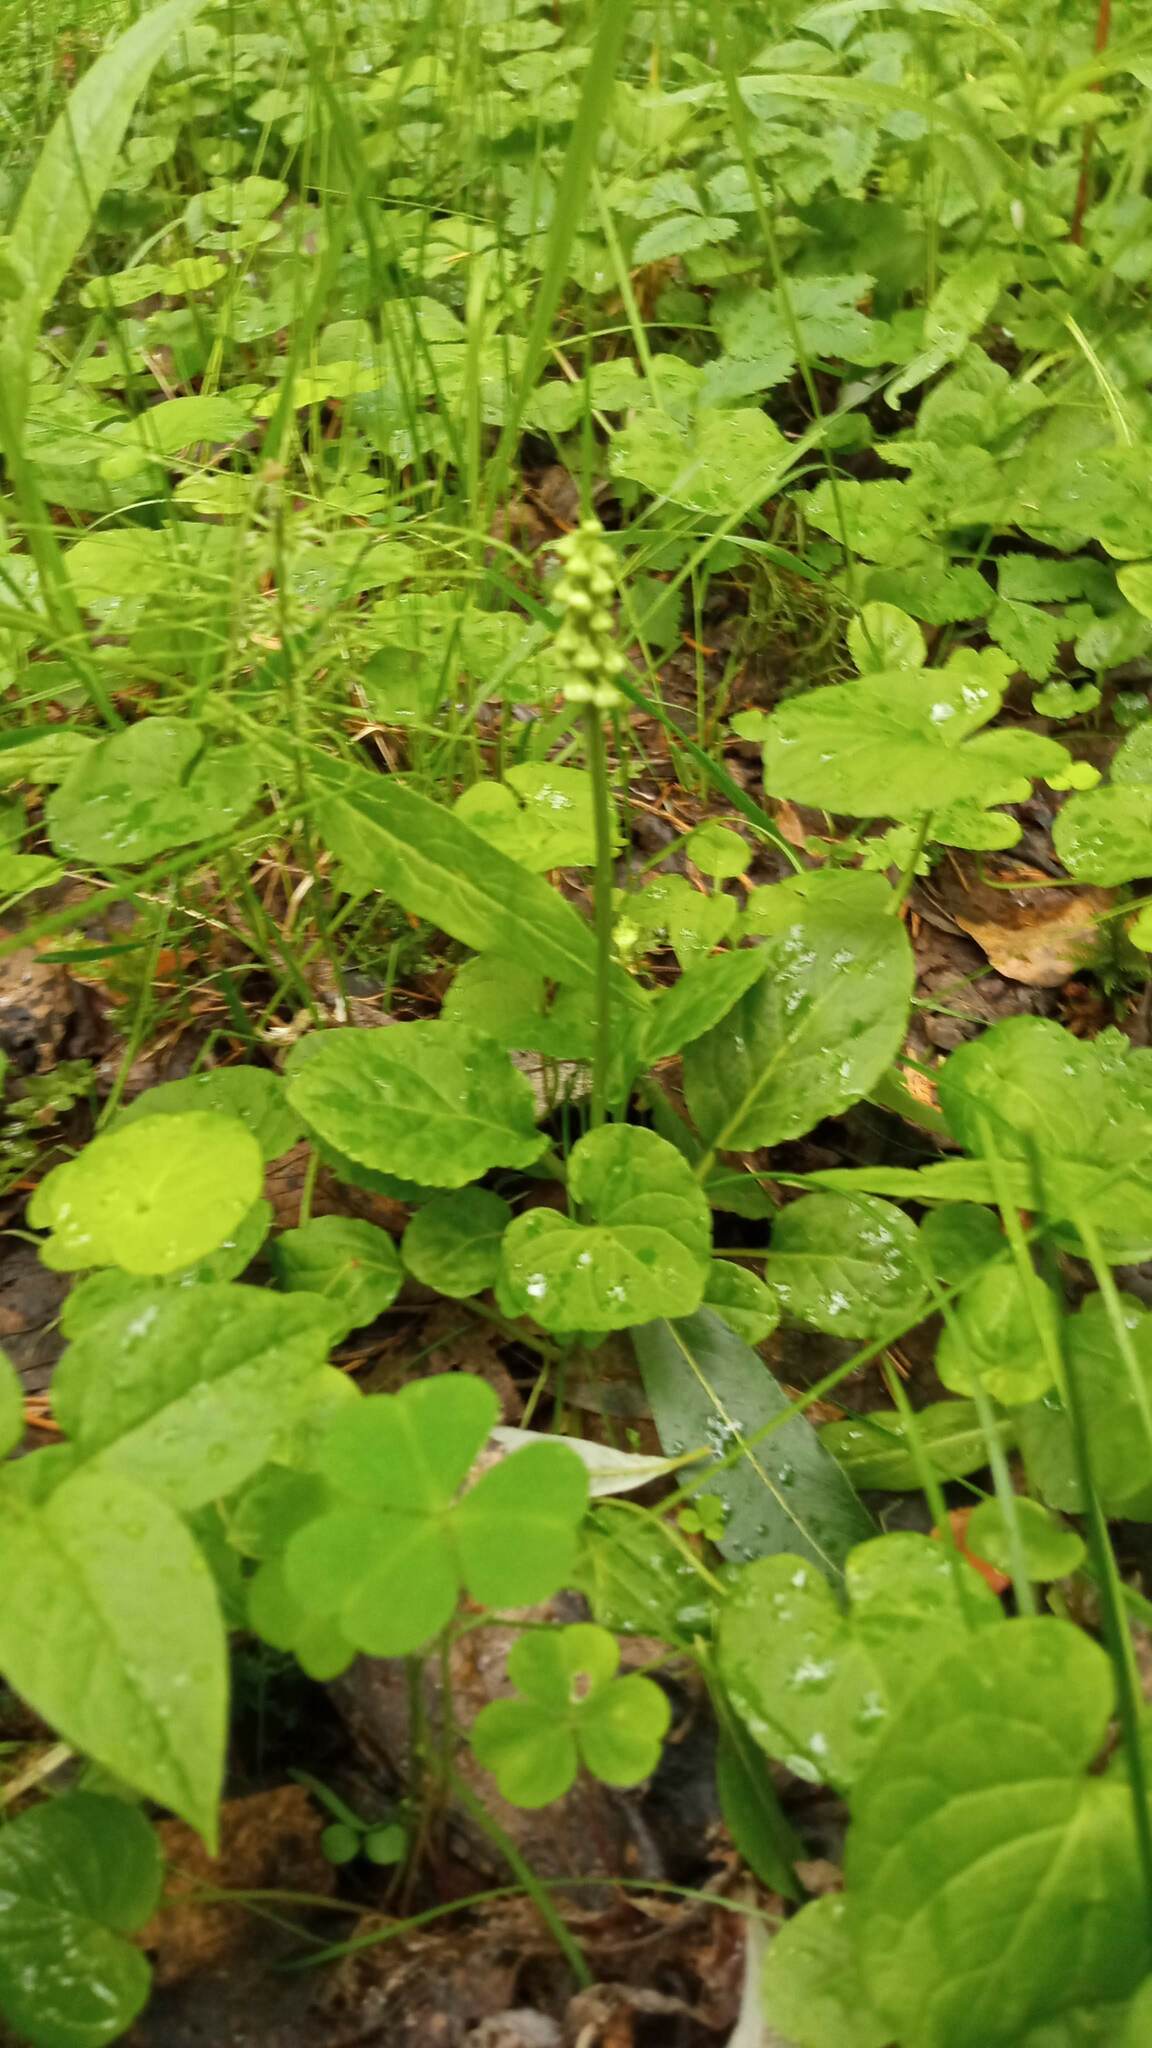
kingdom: Plantae
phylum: Tracheophyta
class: Magnoliopsida
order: Ericales
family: Ericaceae
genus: Pyrola
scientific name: Pyrola minor
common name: Common wintergreen
